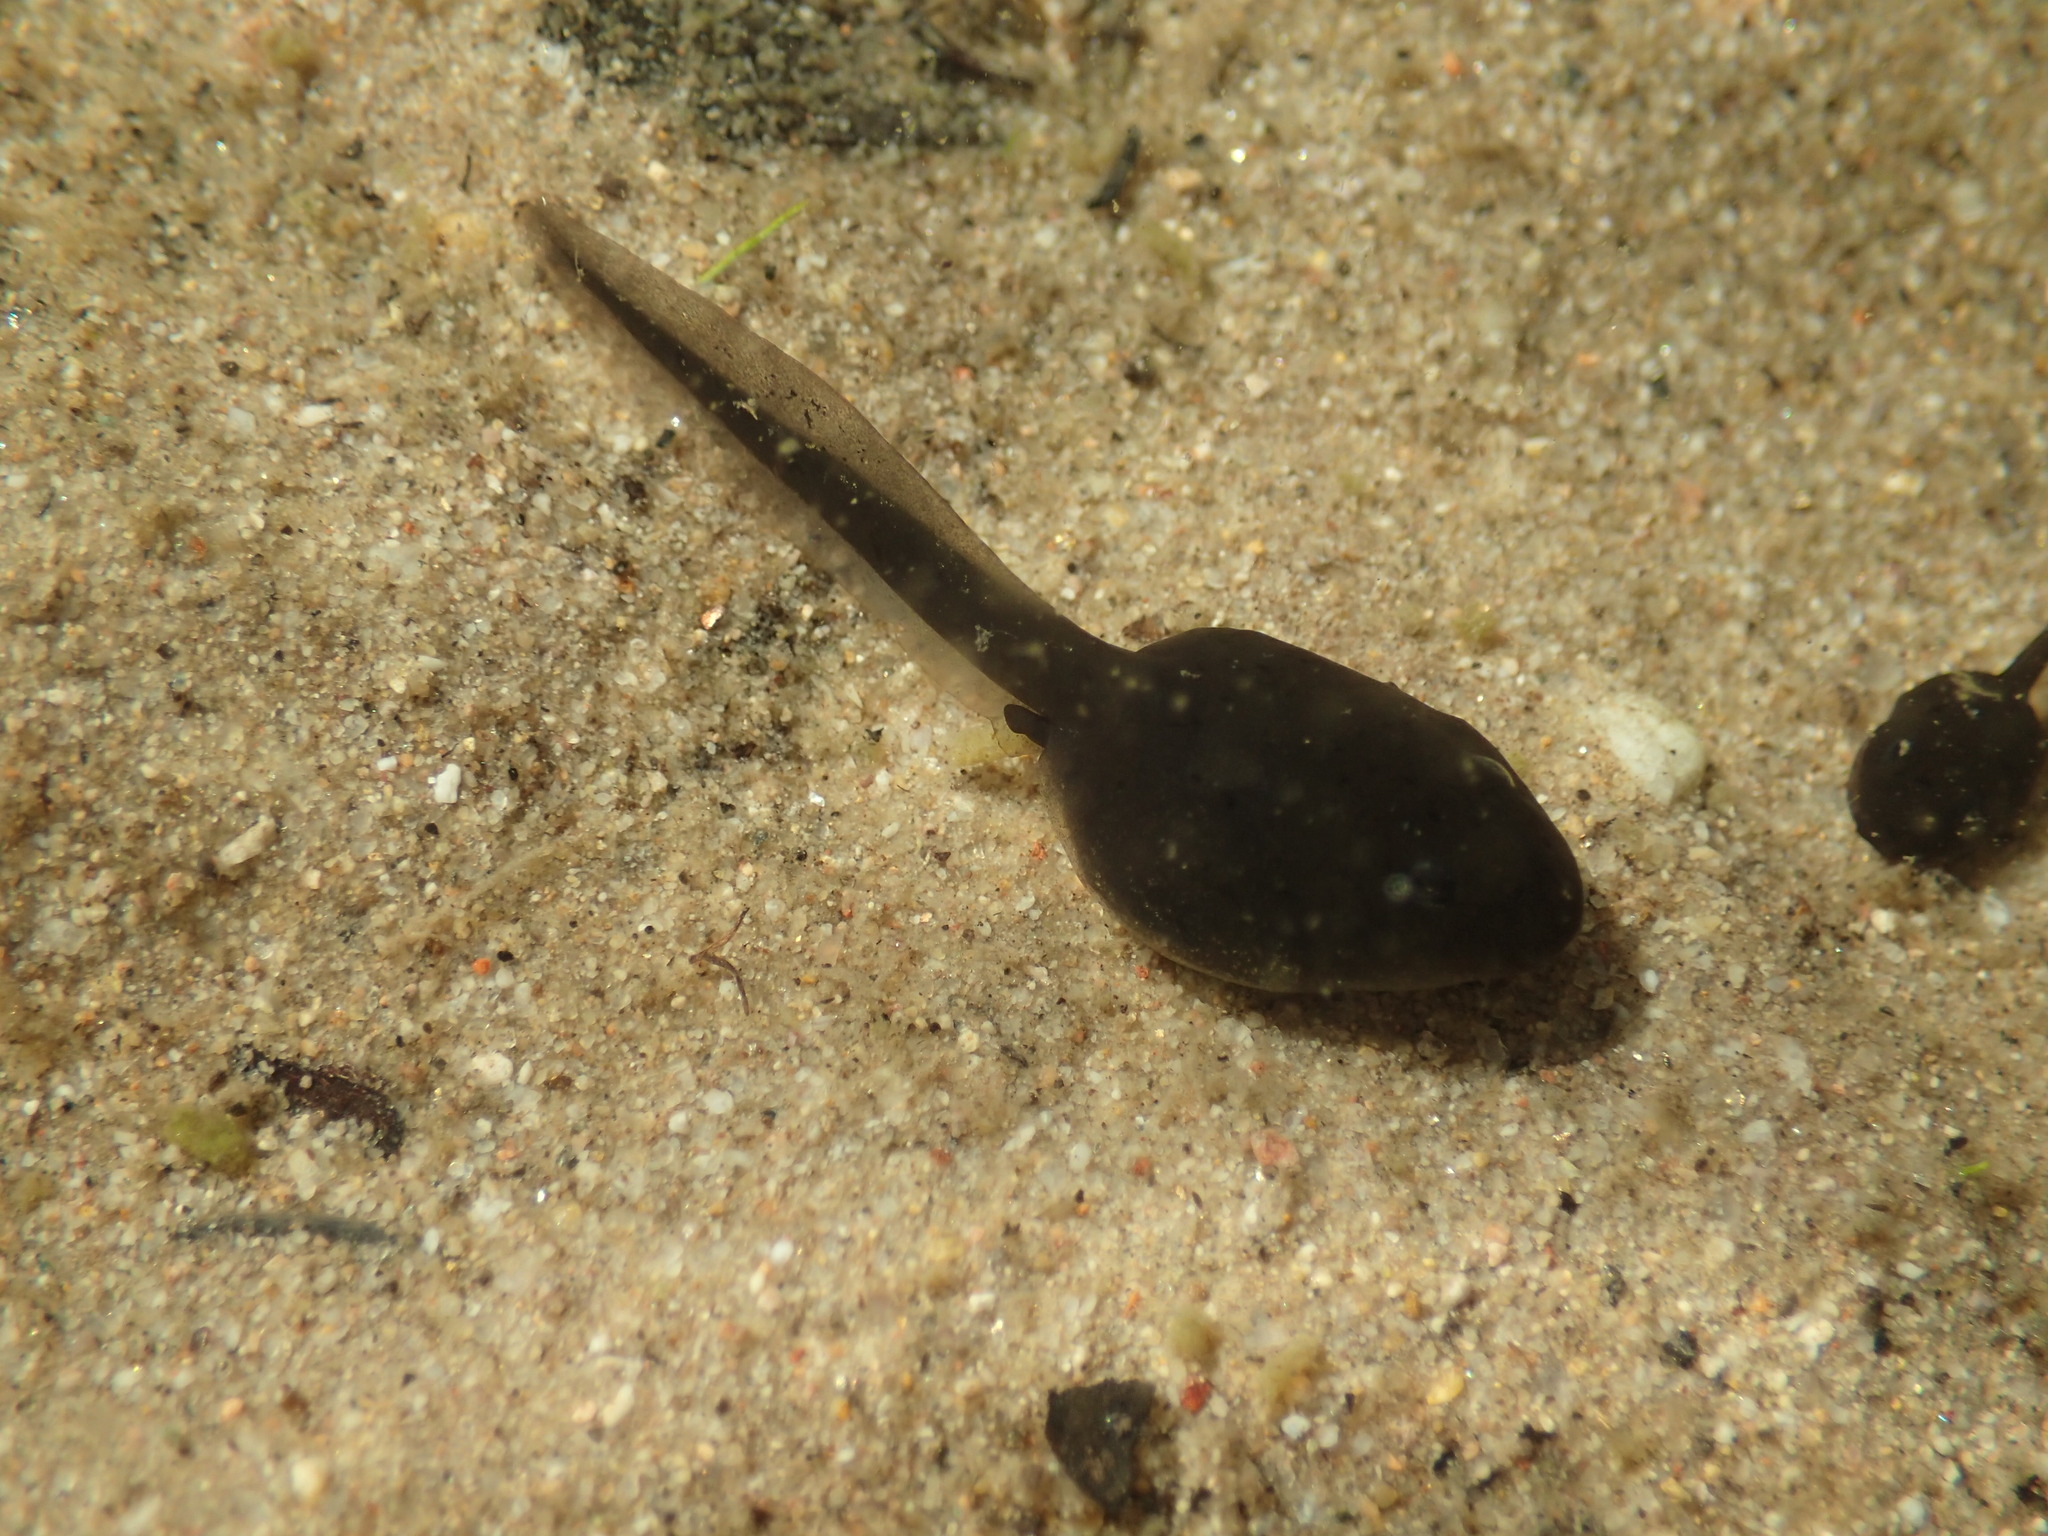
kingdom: Animalia
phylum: Chordata
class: Amphibia
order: Anura
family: Bufonidae
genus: Anaxyrus
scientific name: Anaxyrus boreas
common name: Western toad
